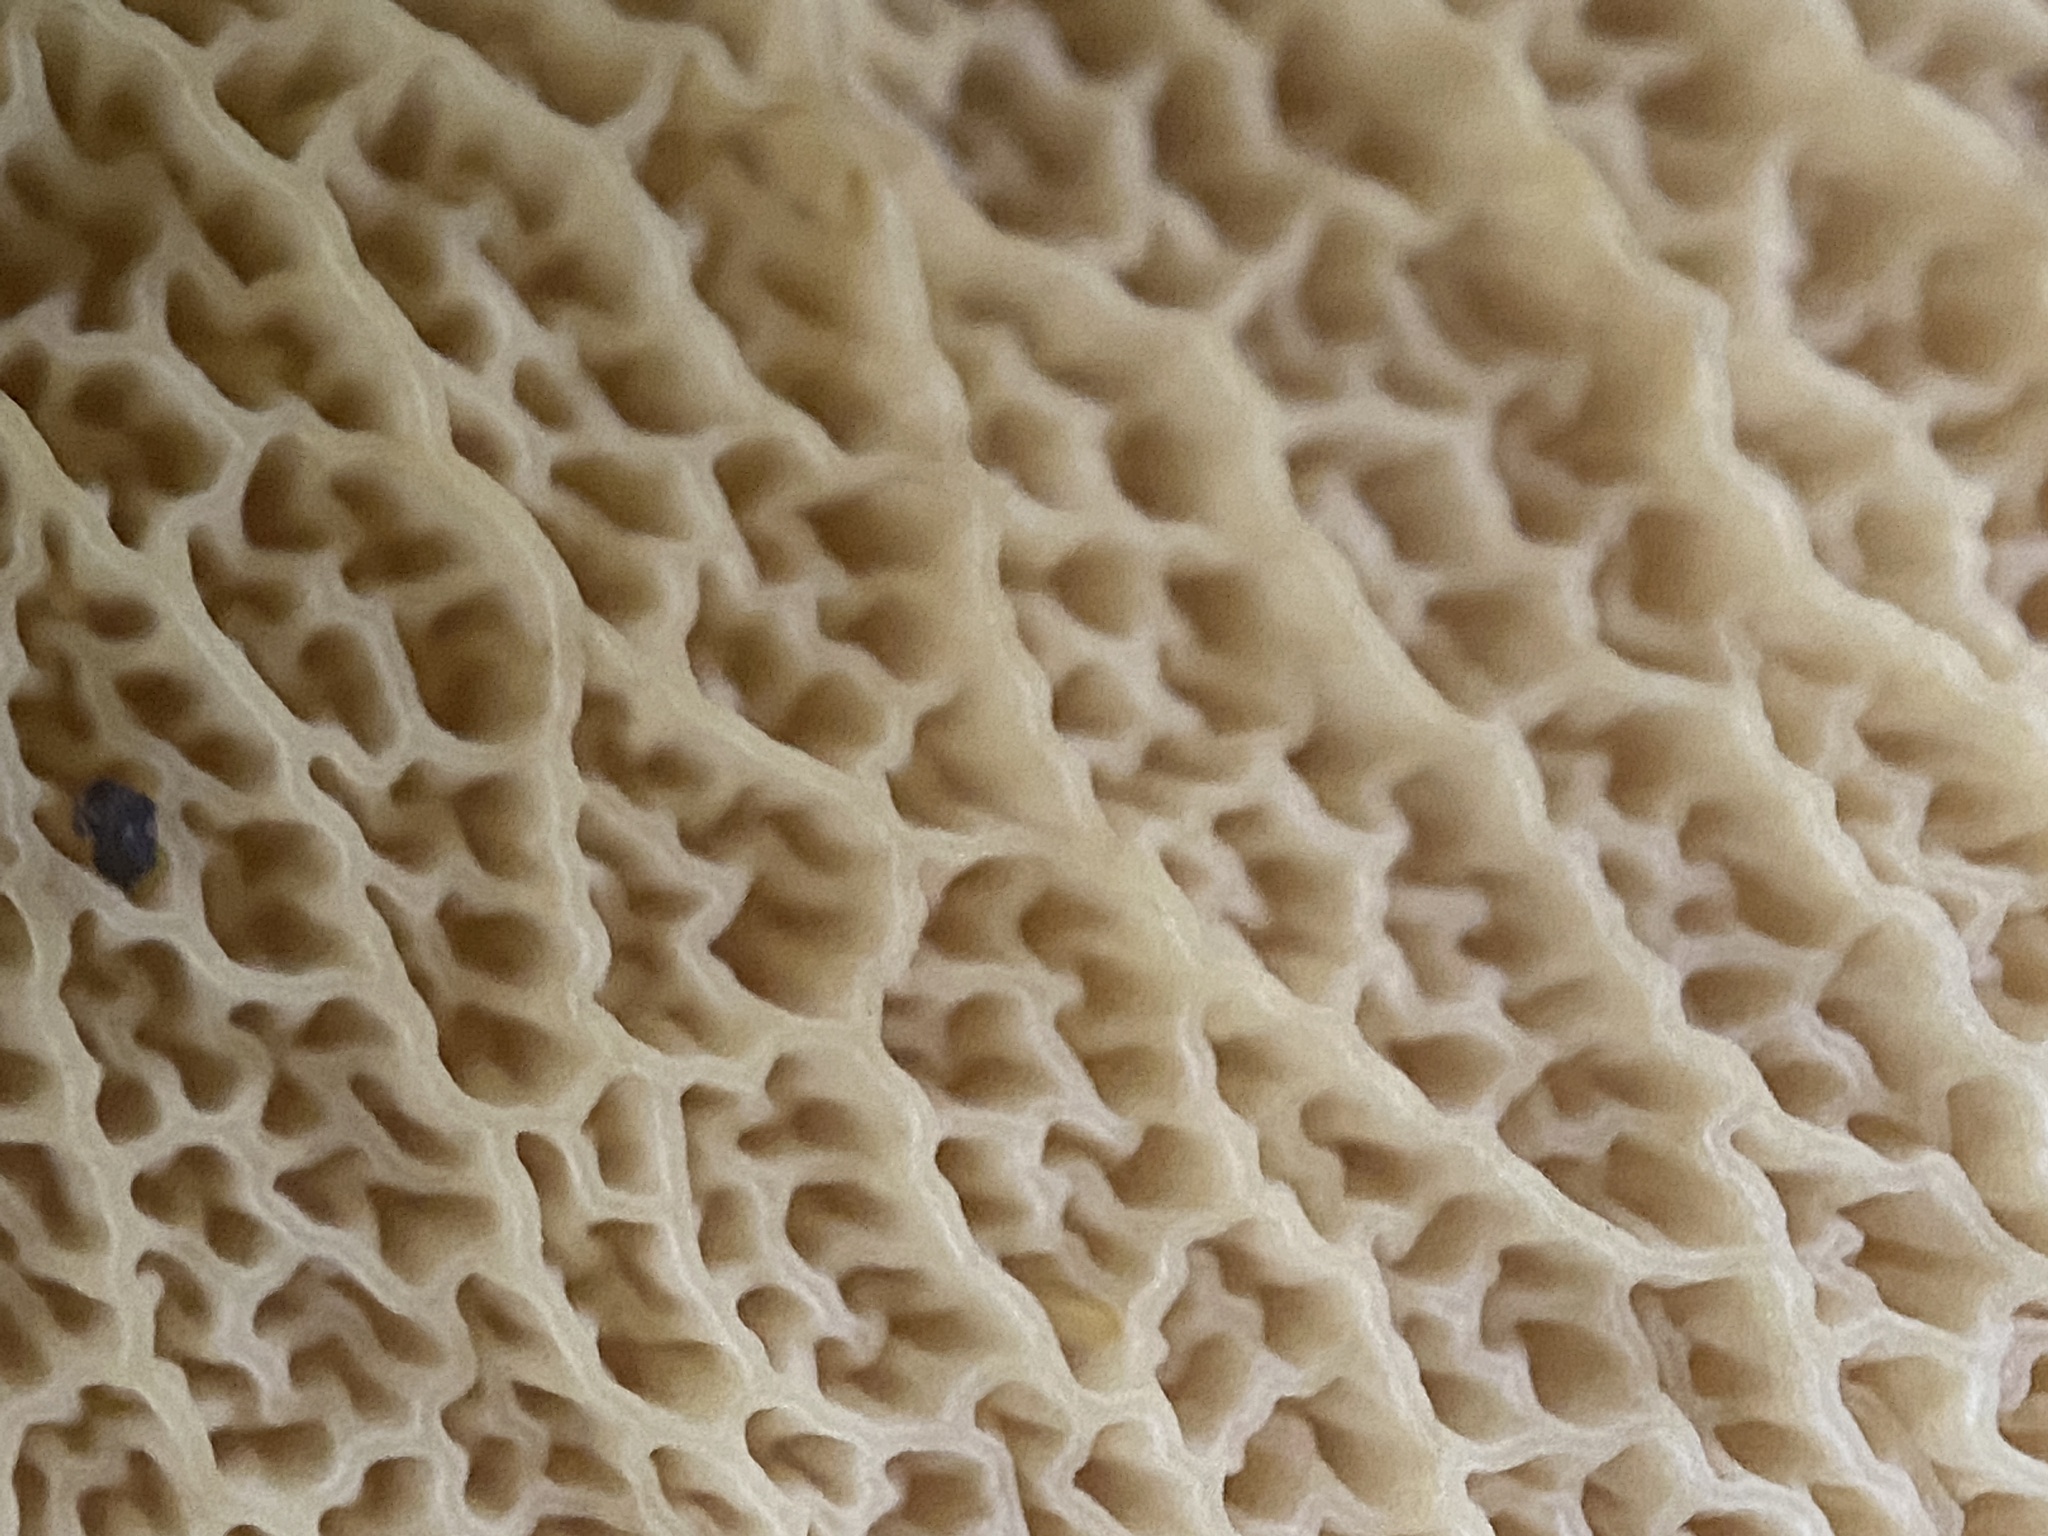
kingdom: Fungi
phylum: Basidiomycota
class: Agaricomycetes
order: Boletales
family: Boletinellaceae
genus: Boletinellus
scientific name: Boletinellus merulioides
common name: Ash tree bolete
